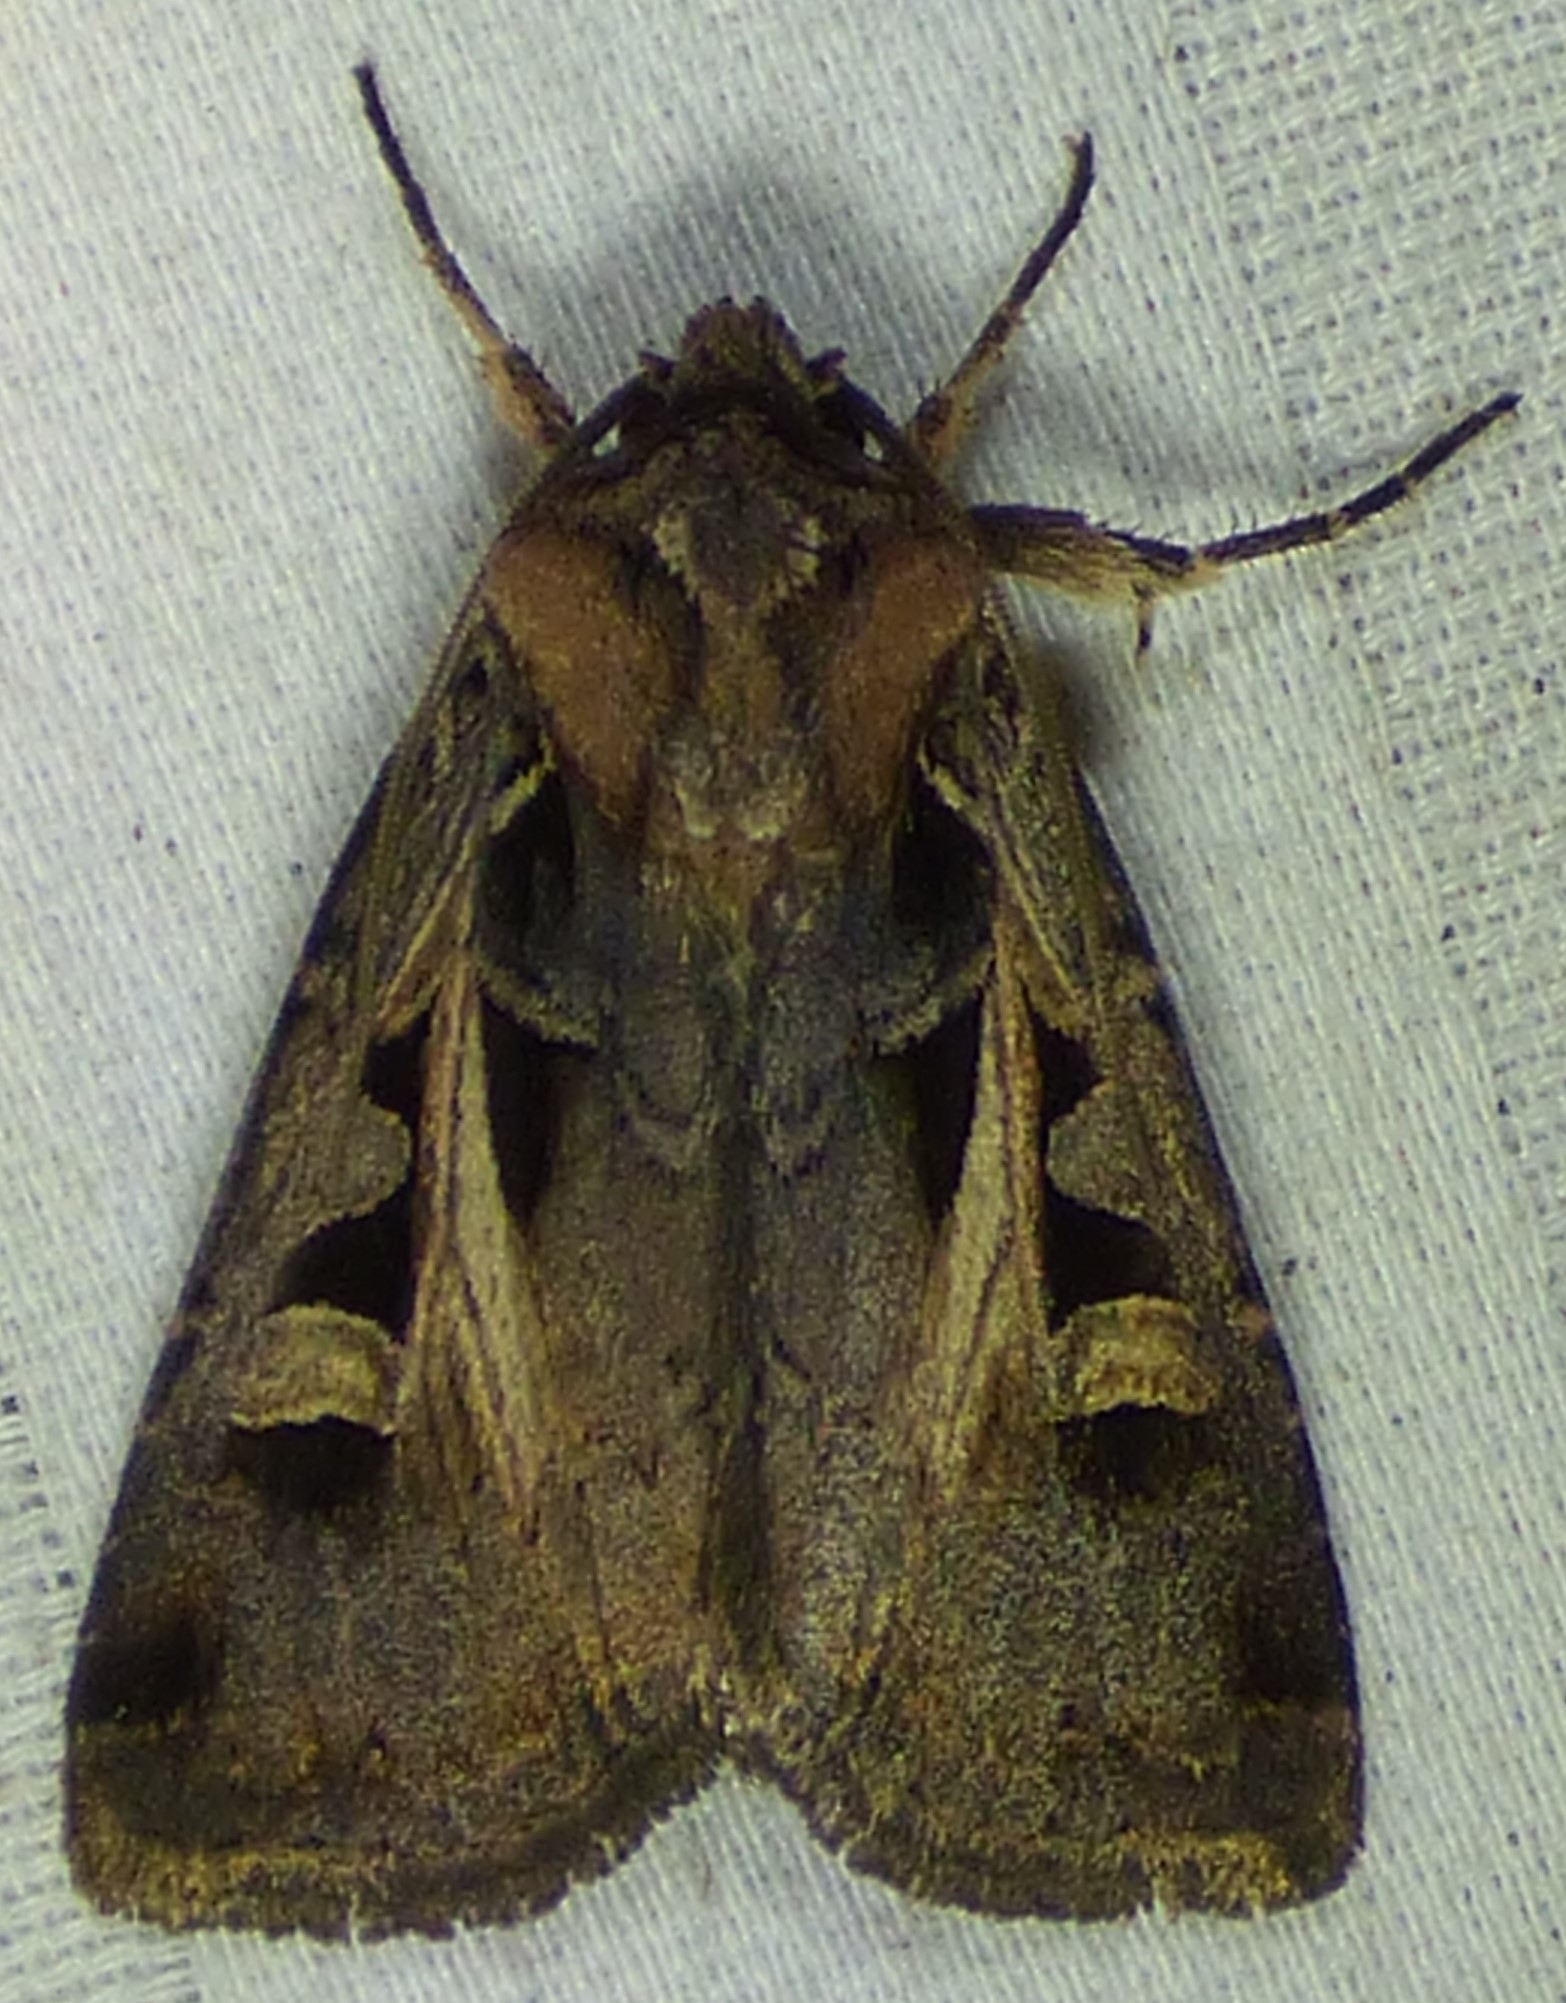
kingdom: Animalia
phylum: Arthropoda
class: Insecta
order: Lepidoptera
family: Noctuidae
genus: Feltia
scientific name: Feltia herilis
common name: Master's dart
